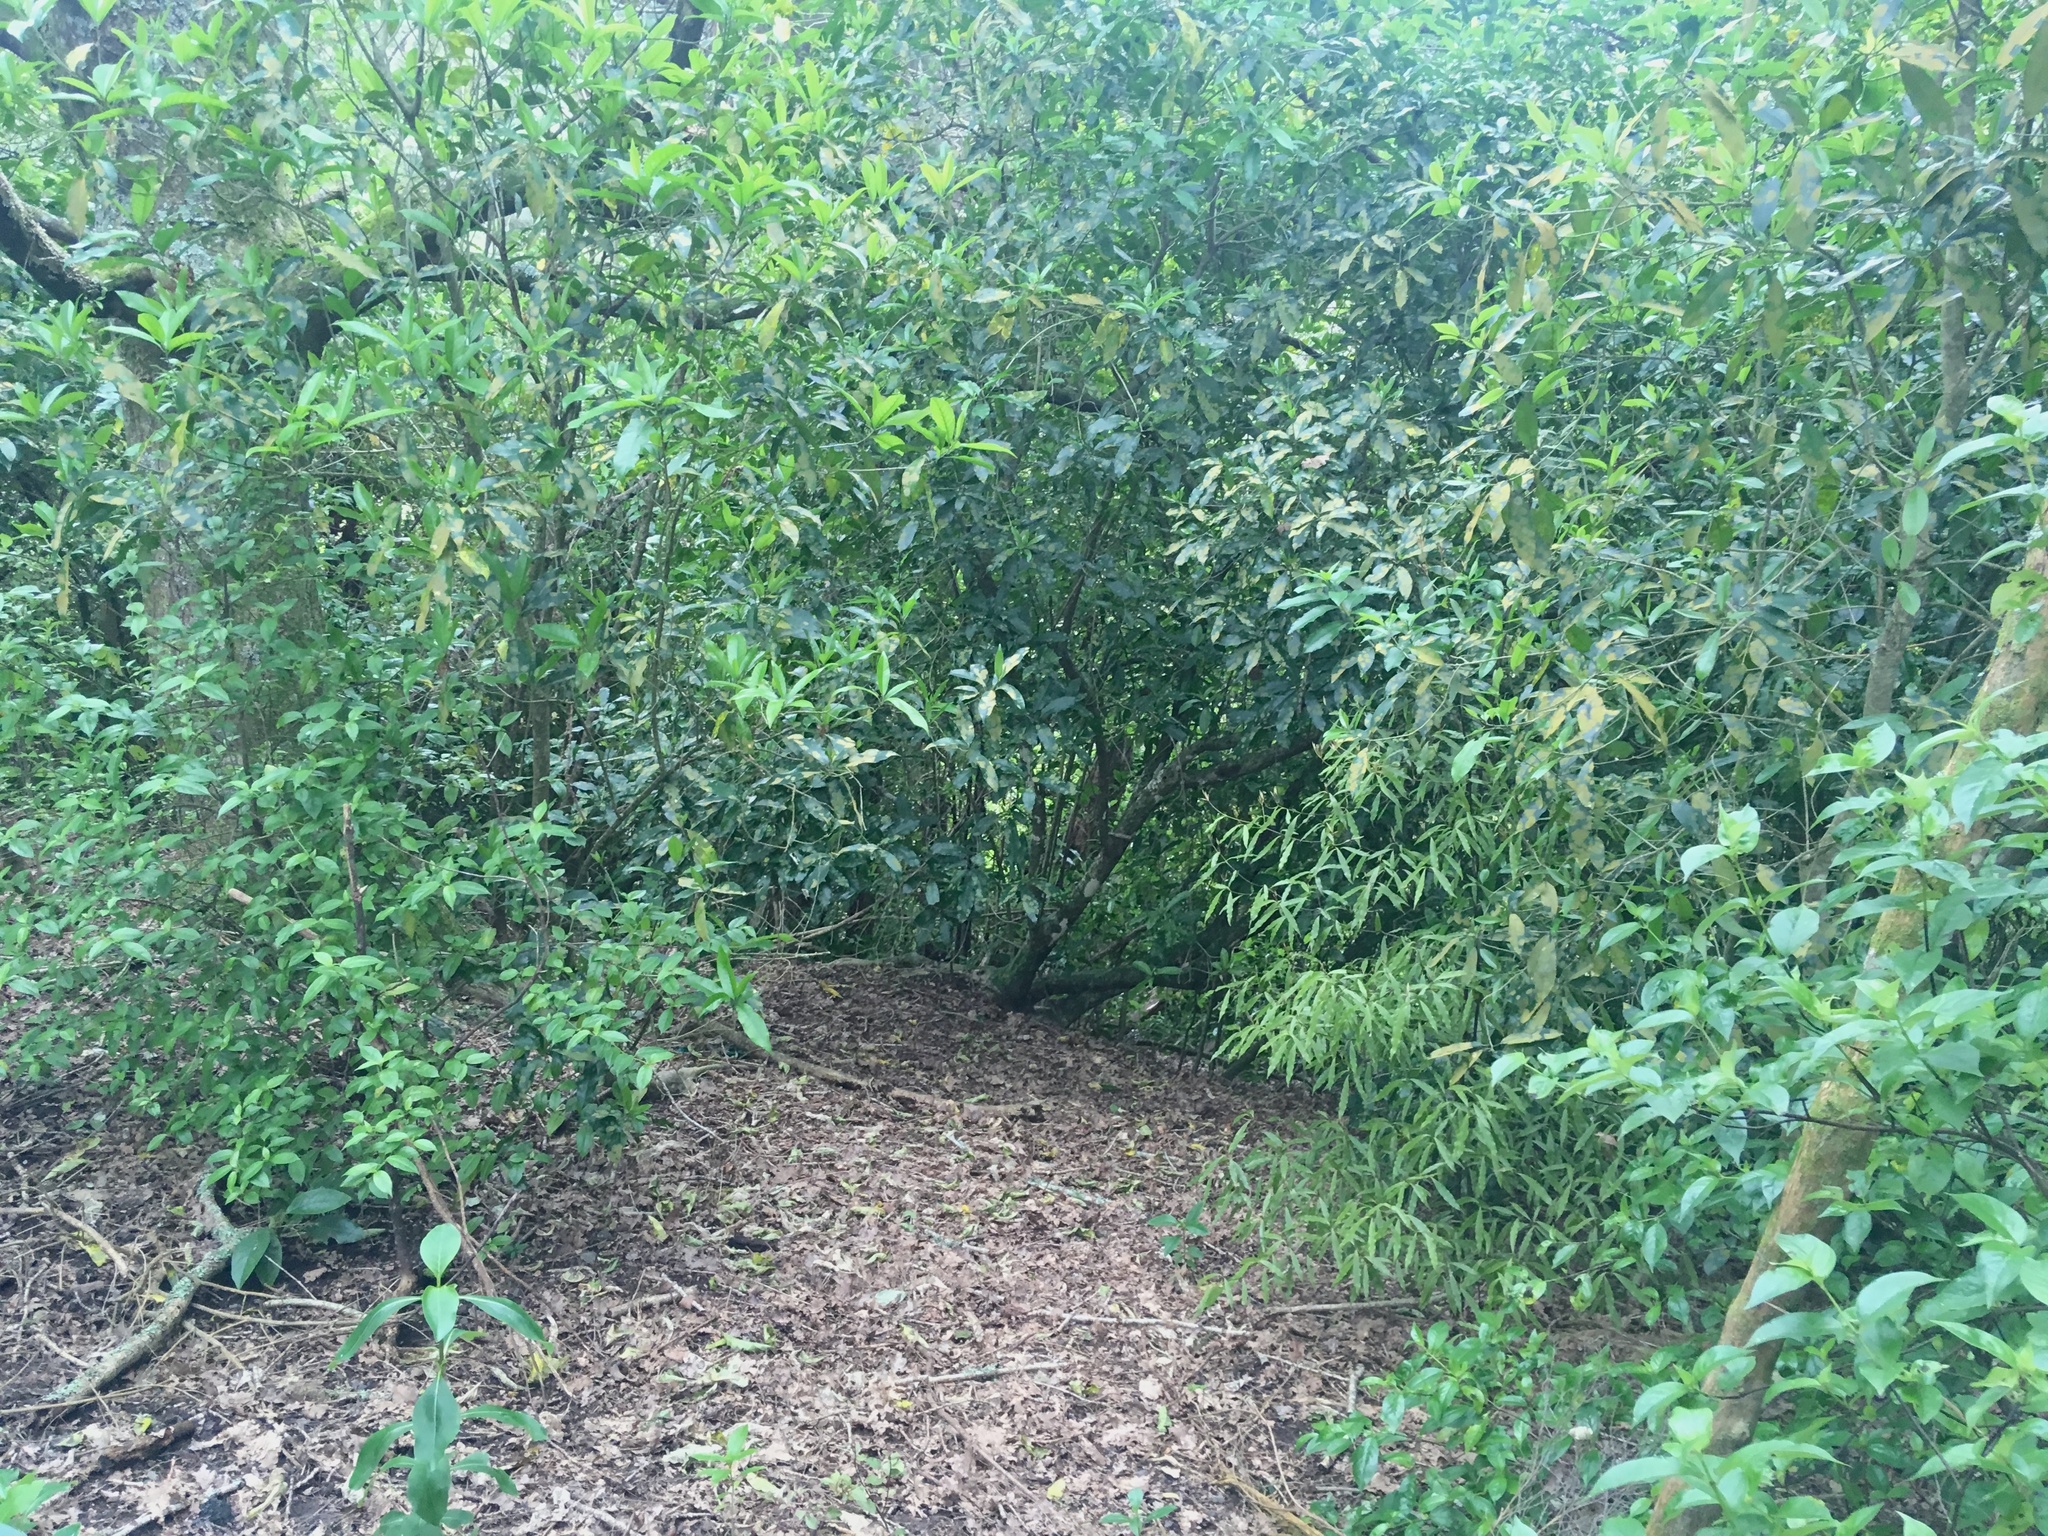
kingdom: Plantae
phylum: Tracheophyta
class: Magnoliopsida
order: Laurales
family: Lauraceae
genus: Beilschmiedia
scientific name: Beilschmiedia tawa
